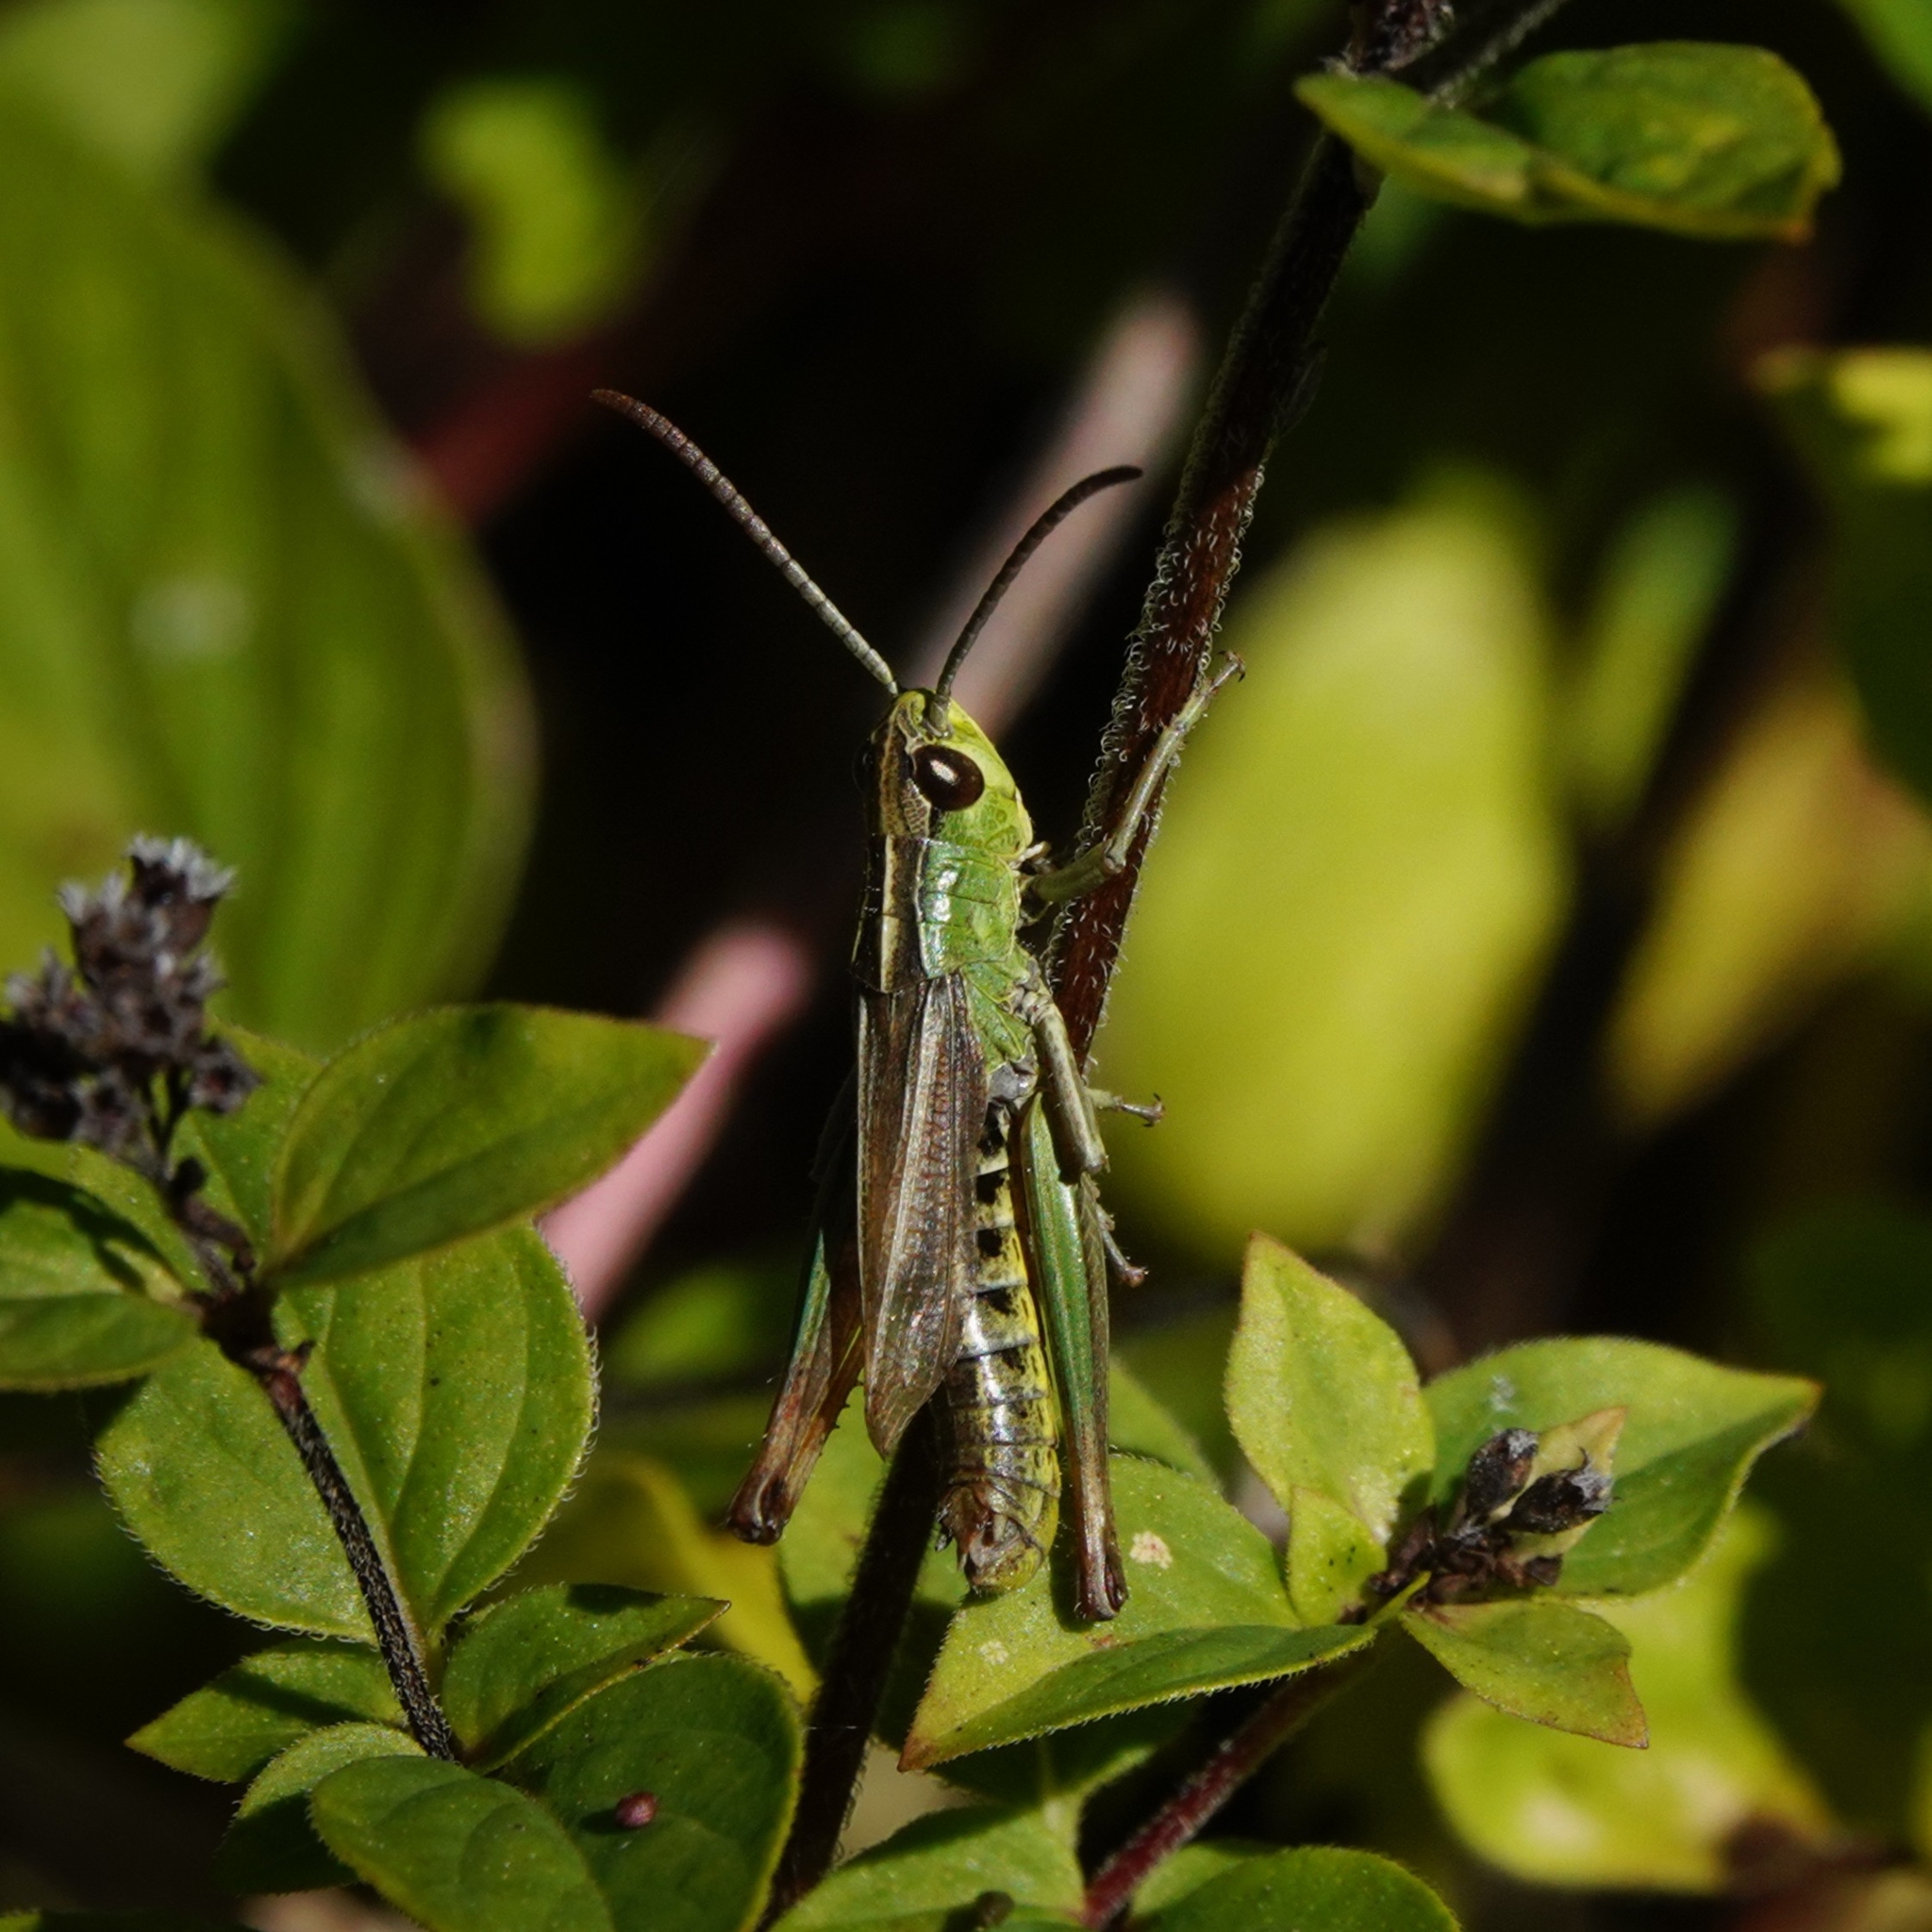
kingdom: Animalia
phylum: Arthropoda
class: Insecta
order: Orthoptera
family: Acrididae
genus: Pseudochorthippus
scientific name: Pseudochorthippus parallelus
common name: Meadow grasshopper
